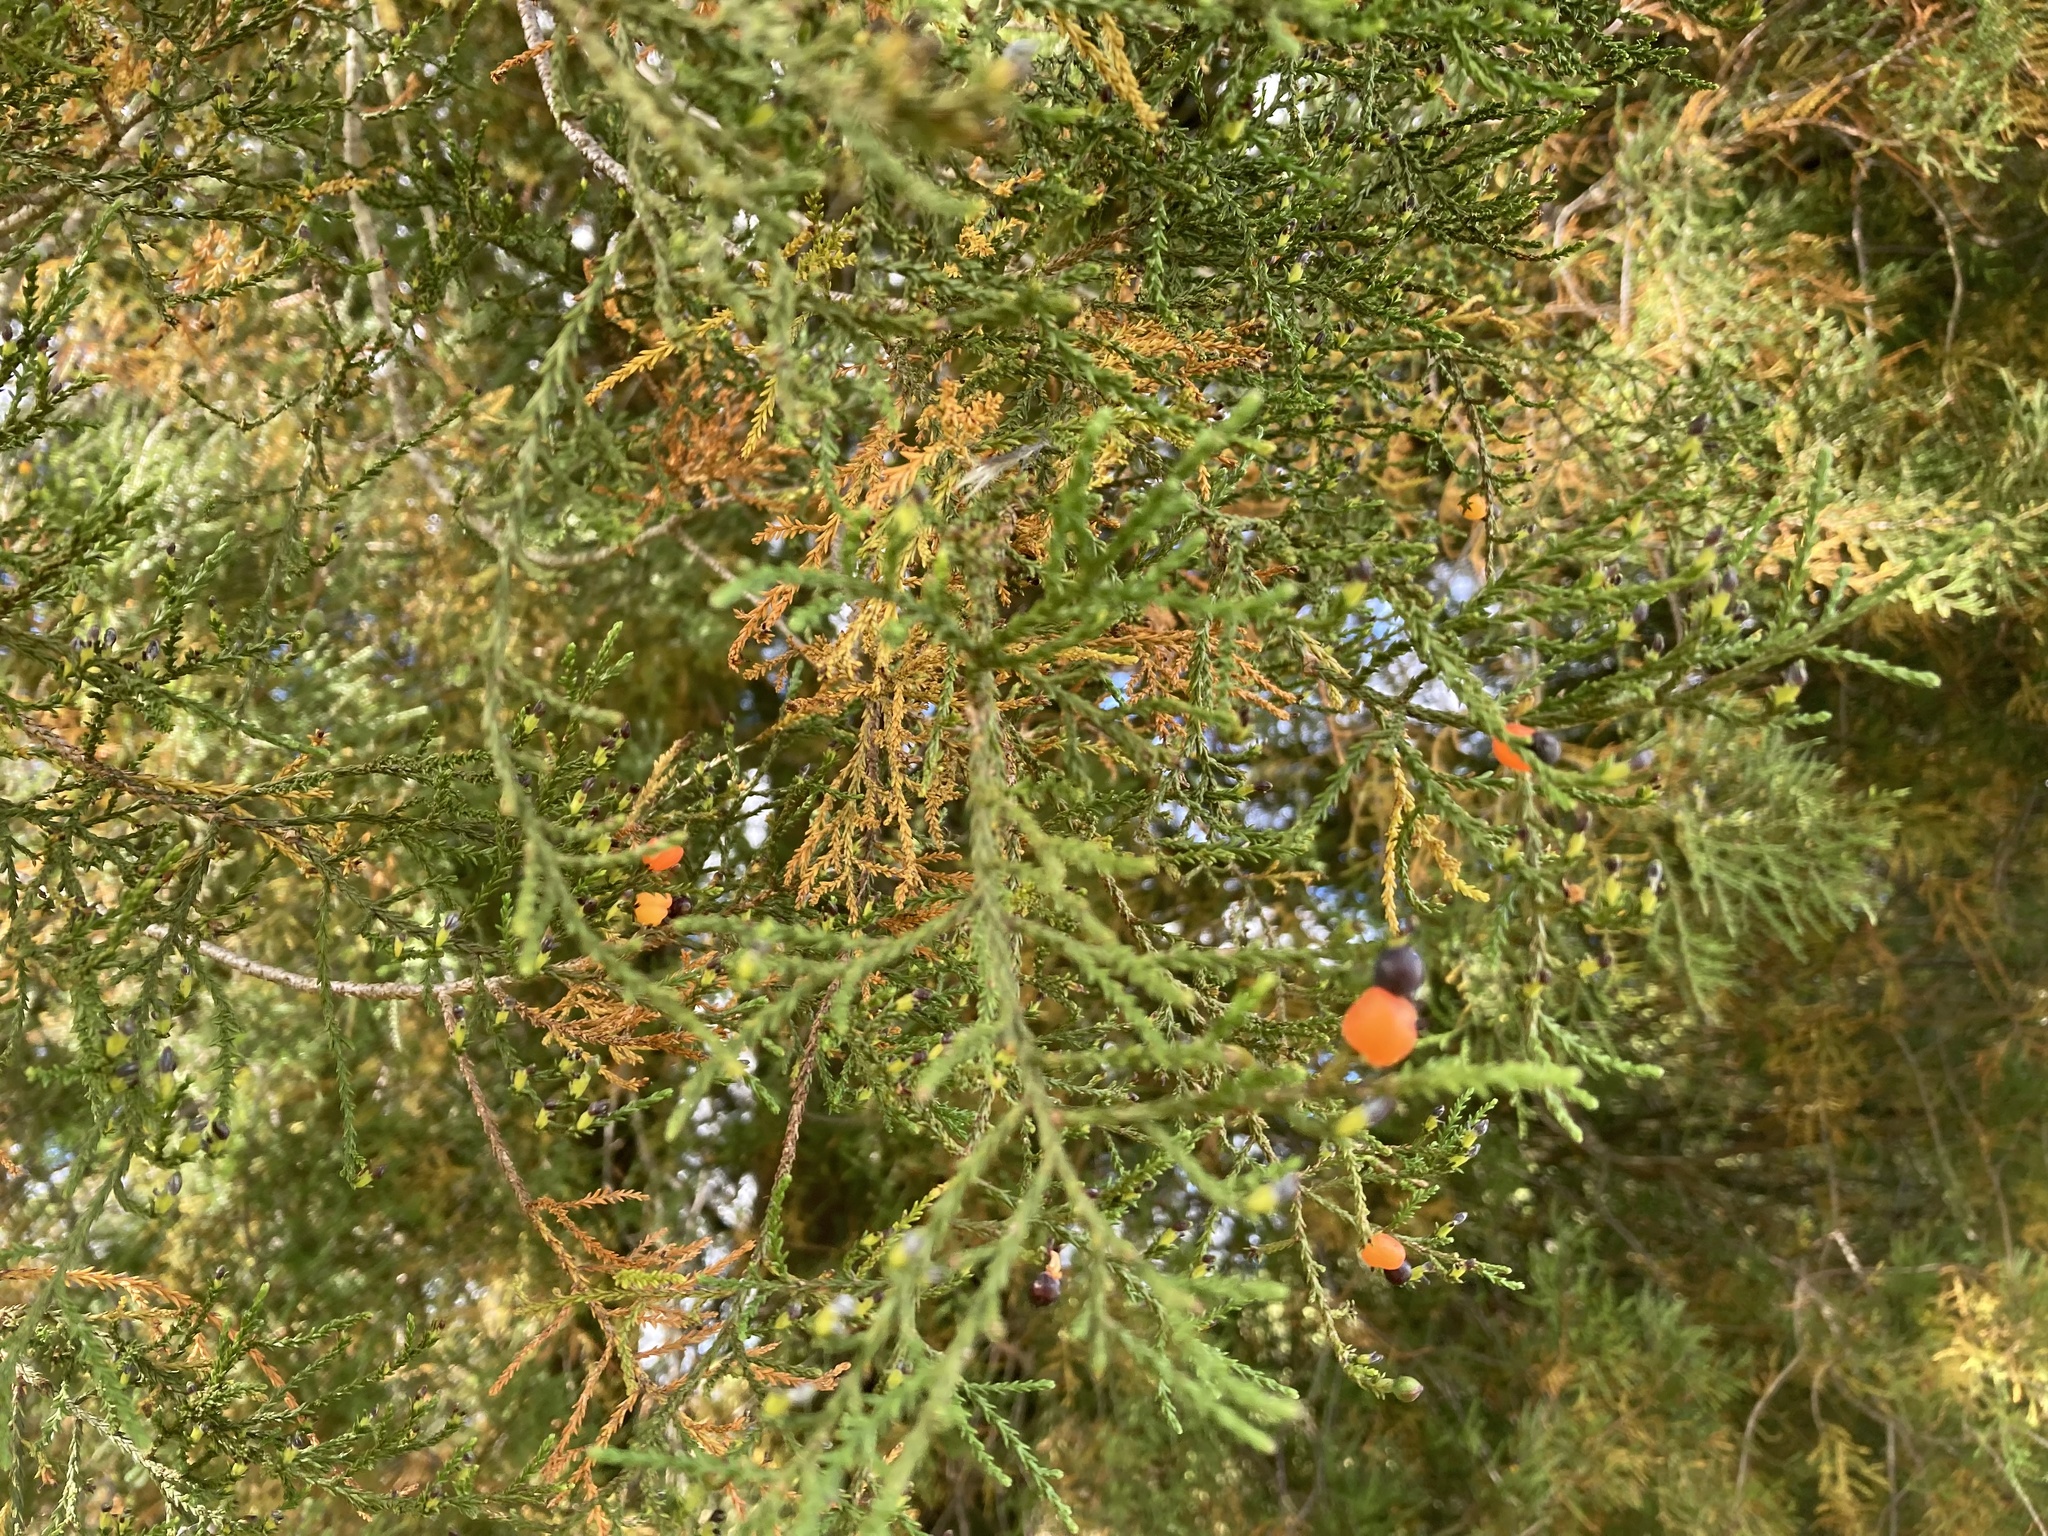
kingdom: Plantae
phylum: Tracheophyta
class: Pinopsida
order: Pinales
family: Podocarpaceae
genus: Dacrycarpus
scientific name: Dacrycarpus dacrydioides
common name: White pine
